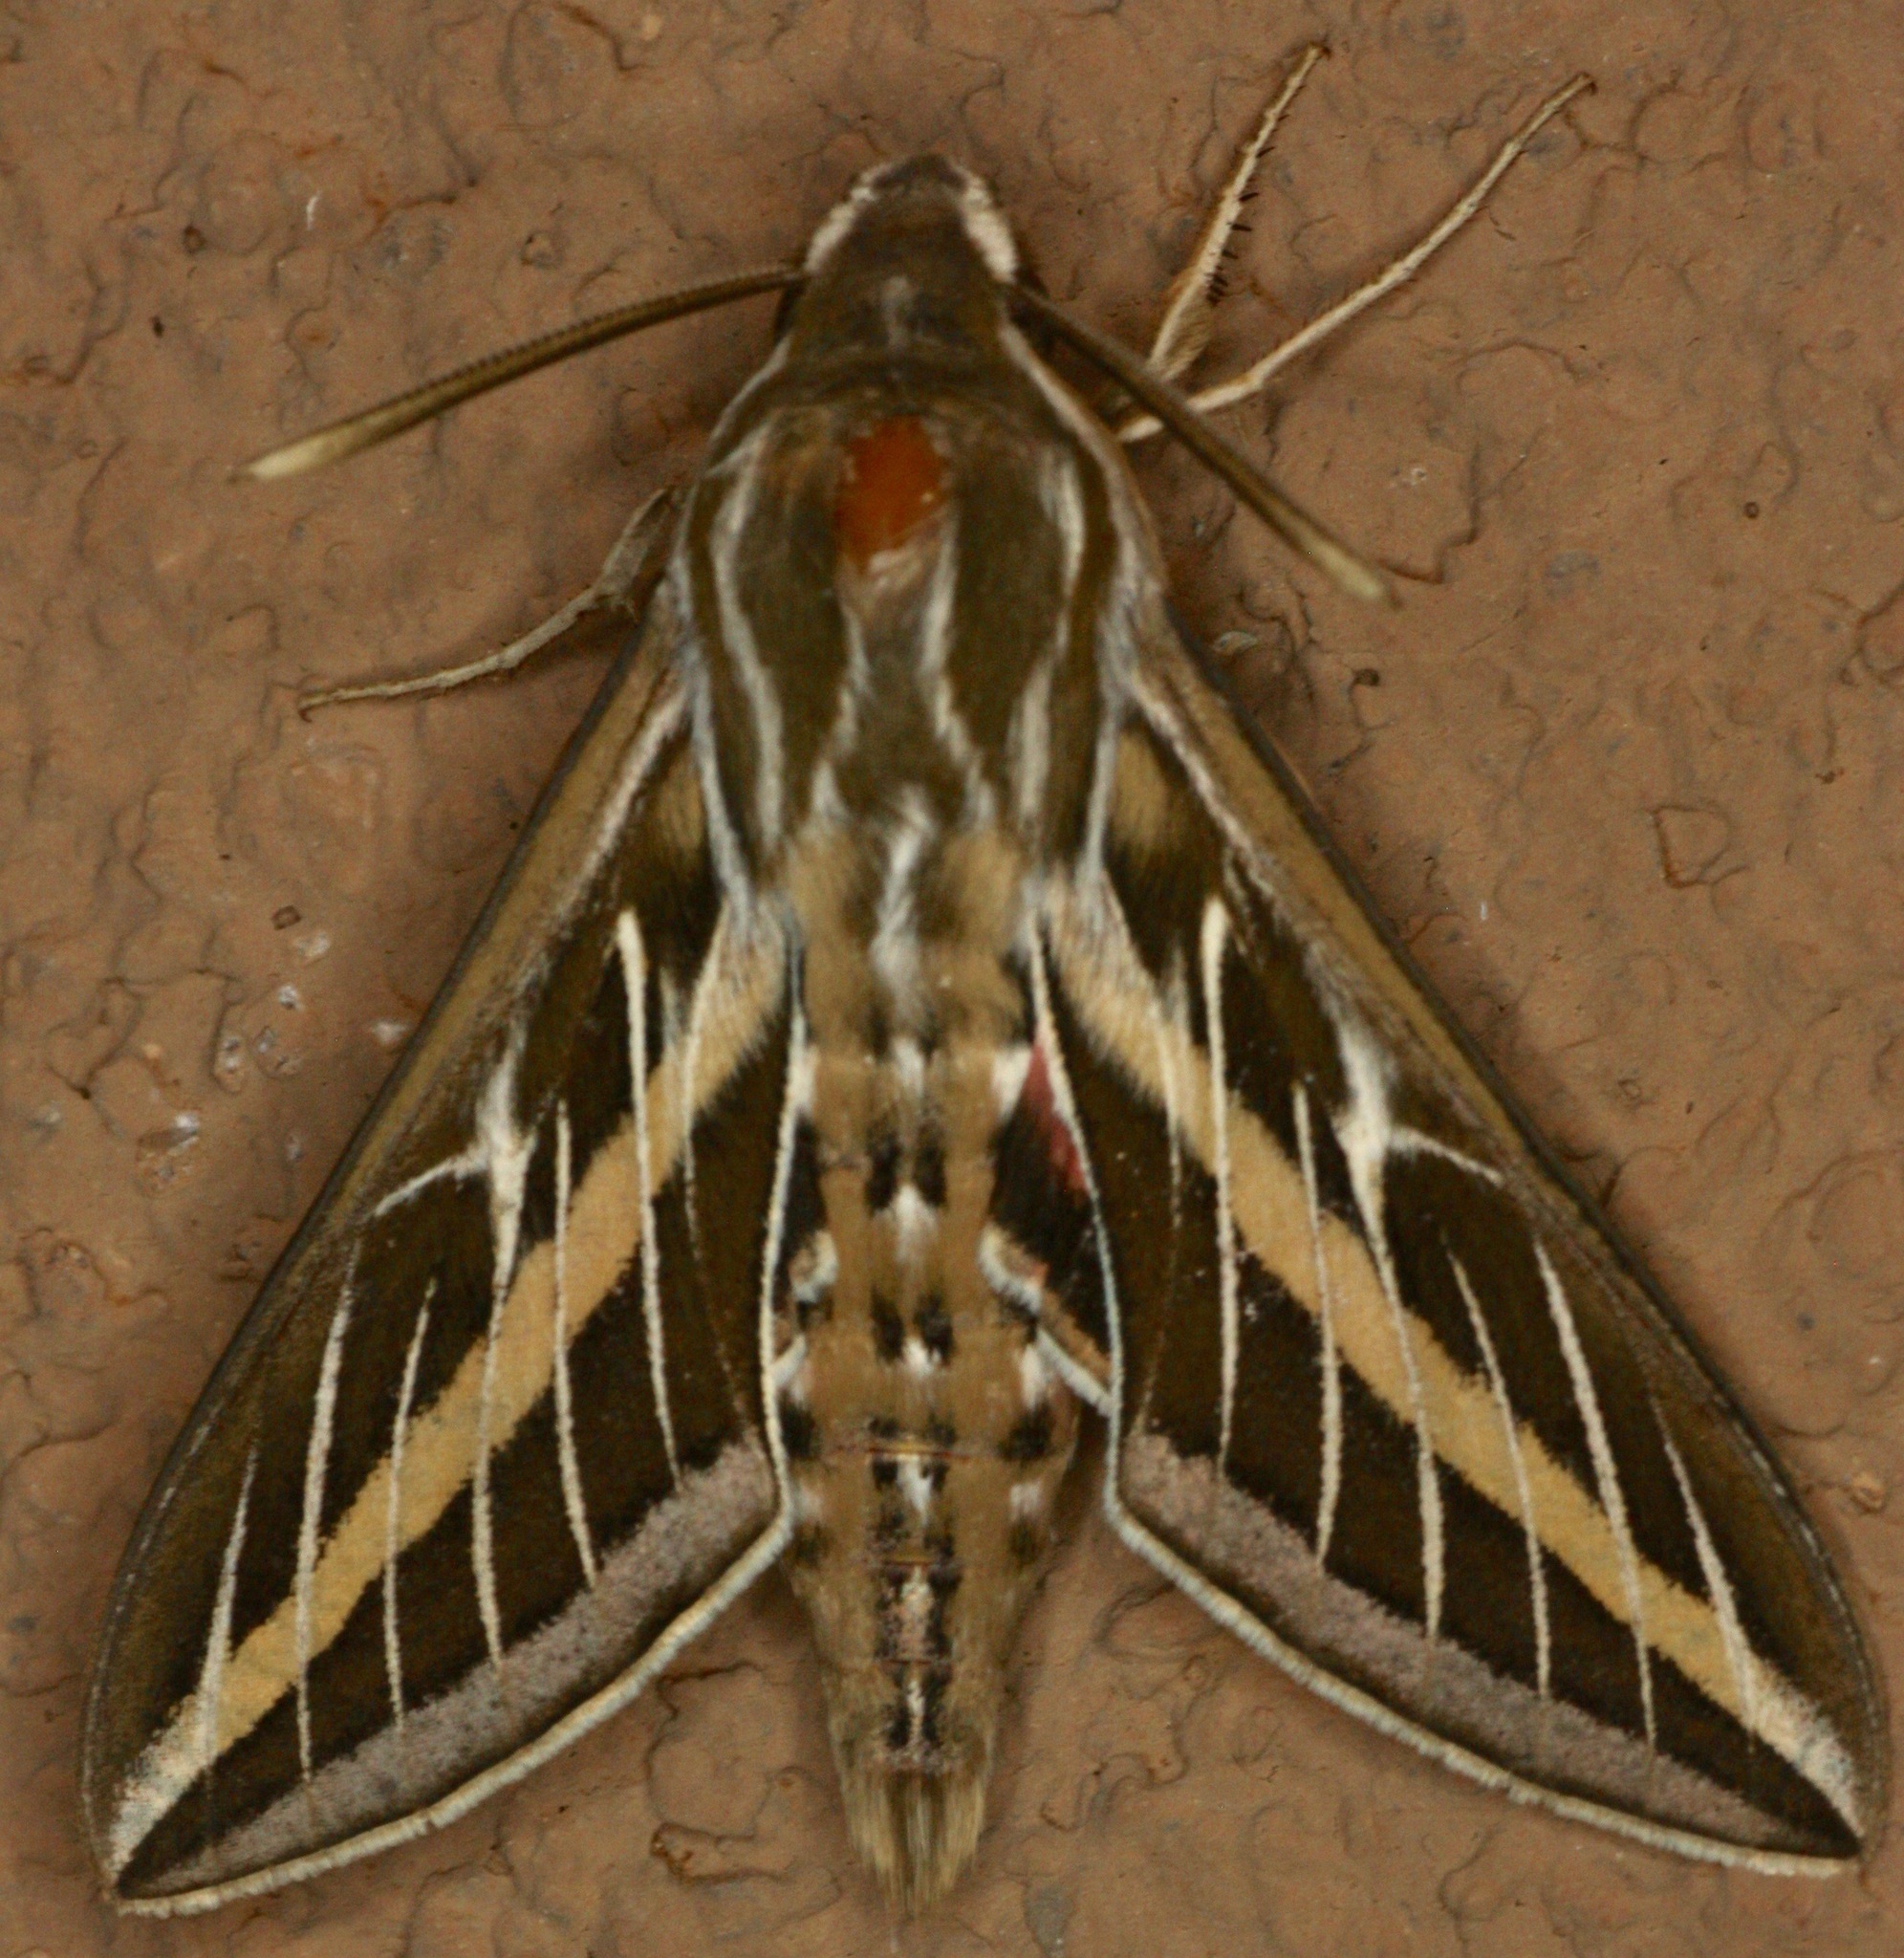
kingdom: Animalia
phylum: Arthropoda
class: Insecta
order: Lepidoptera
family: Sphingidae
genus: Hyles
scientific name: Hyles lineata
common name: White-lined sphinx
